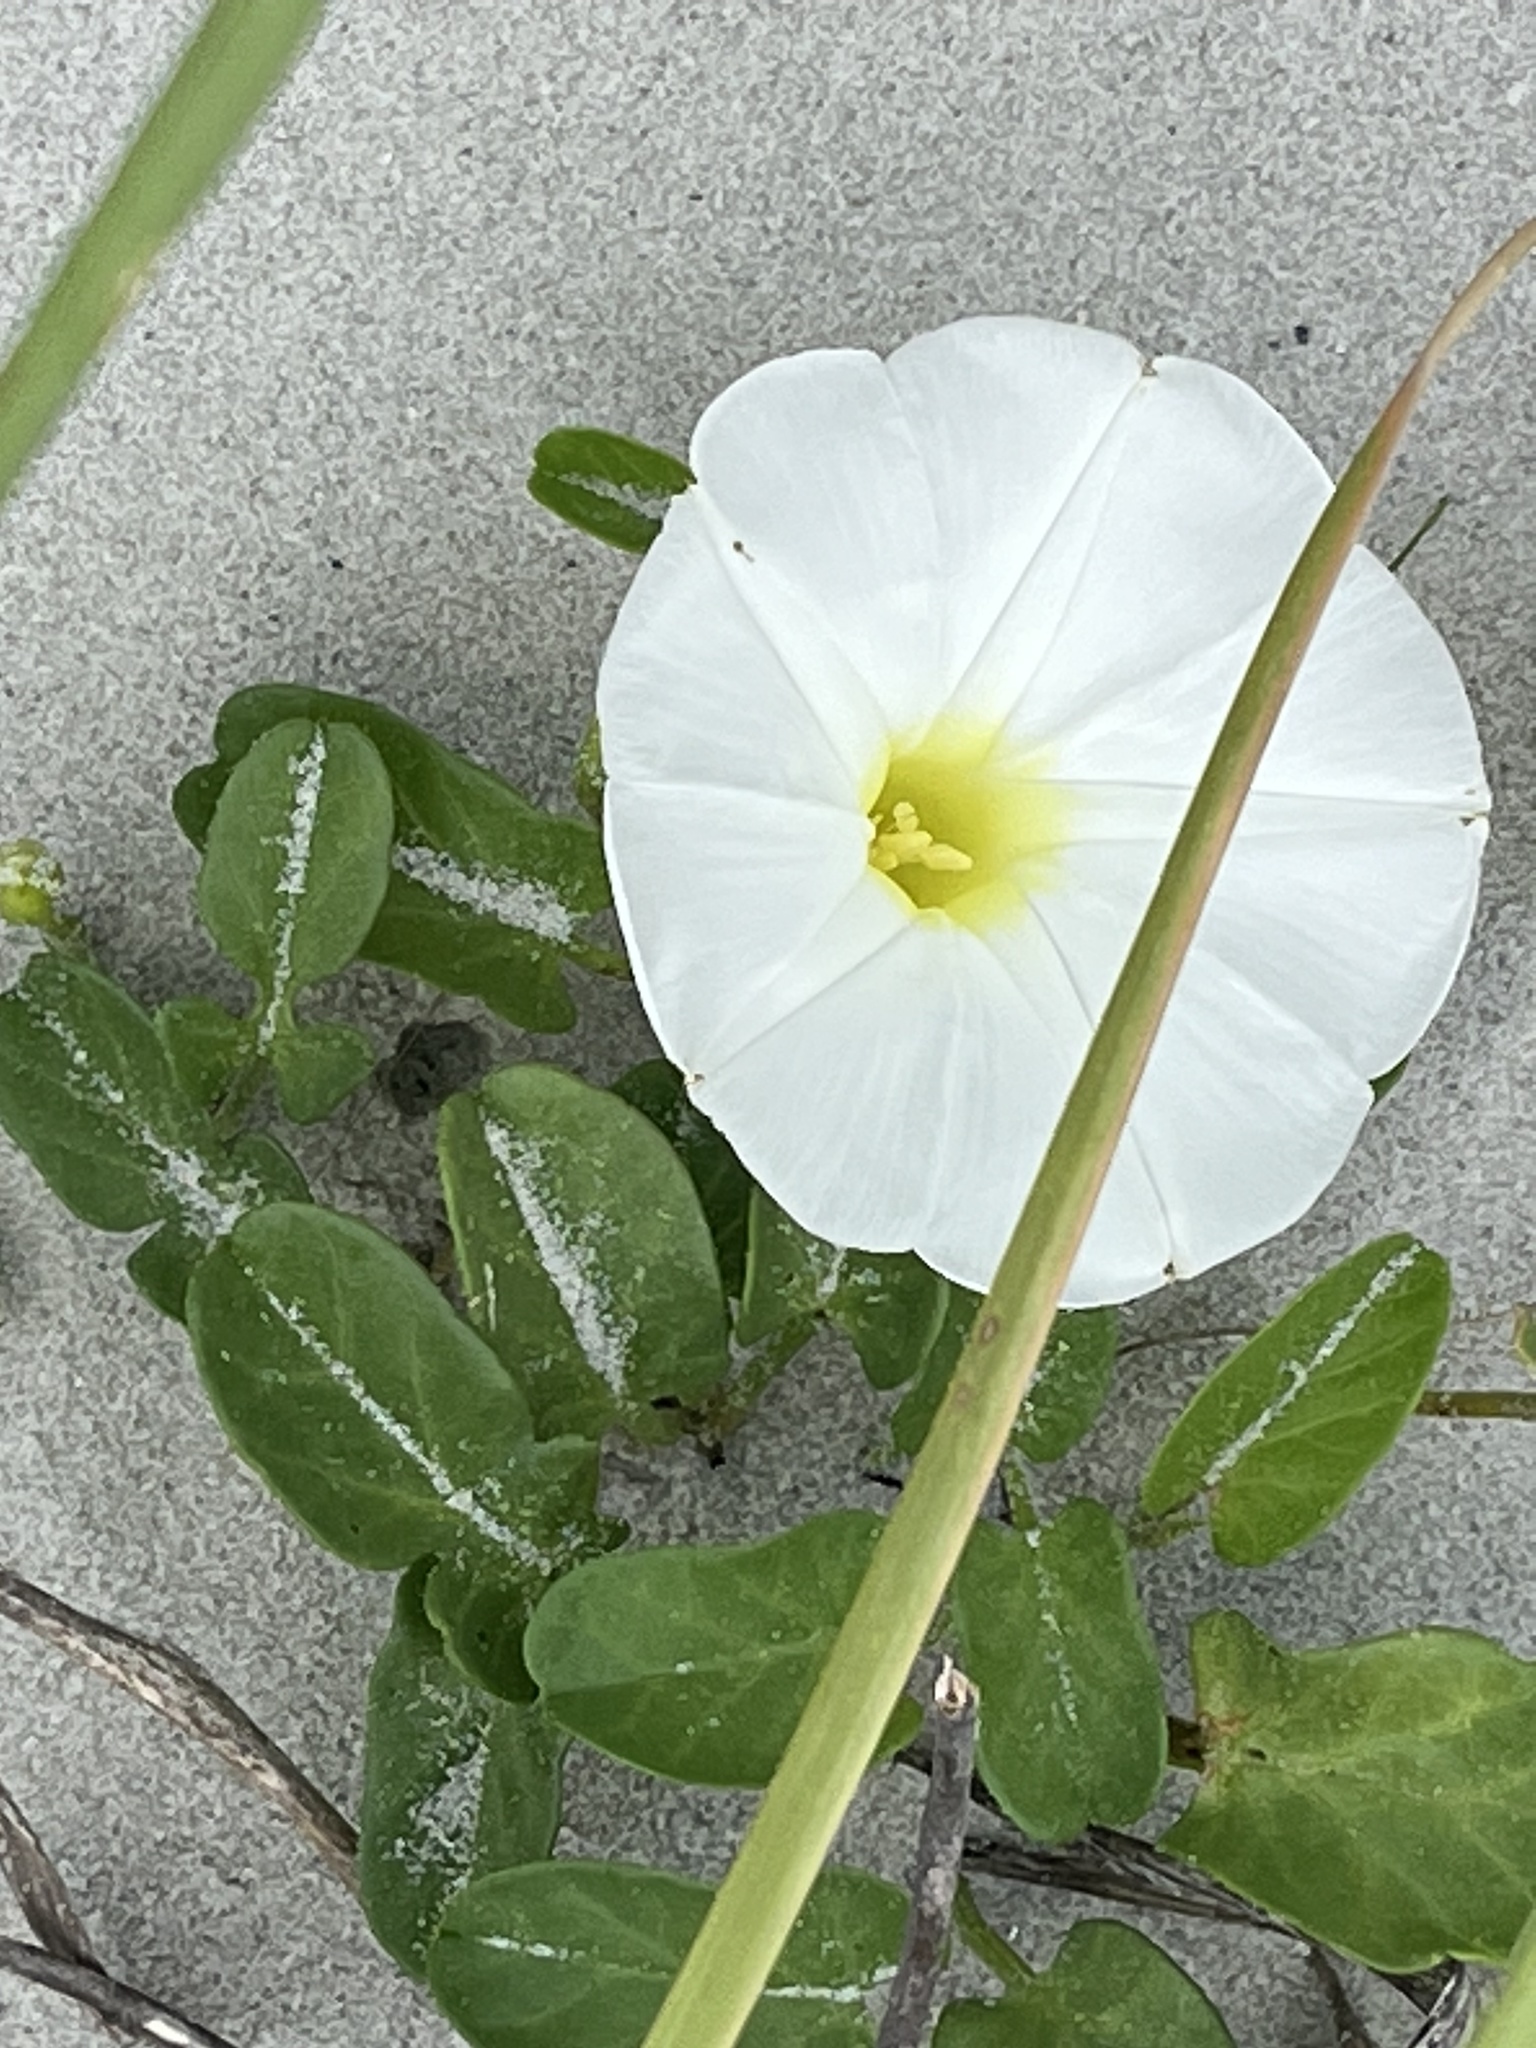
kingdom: Plantae
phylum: Tracheophyta
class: Magnoliopsida
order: Solanales
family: Convolvulaceae
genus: Ipomoea
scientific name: Ipomoea imperati
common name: Fiddle-leaf morning-glory
